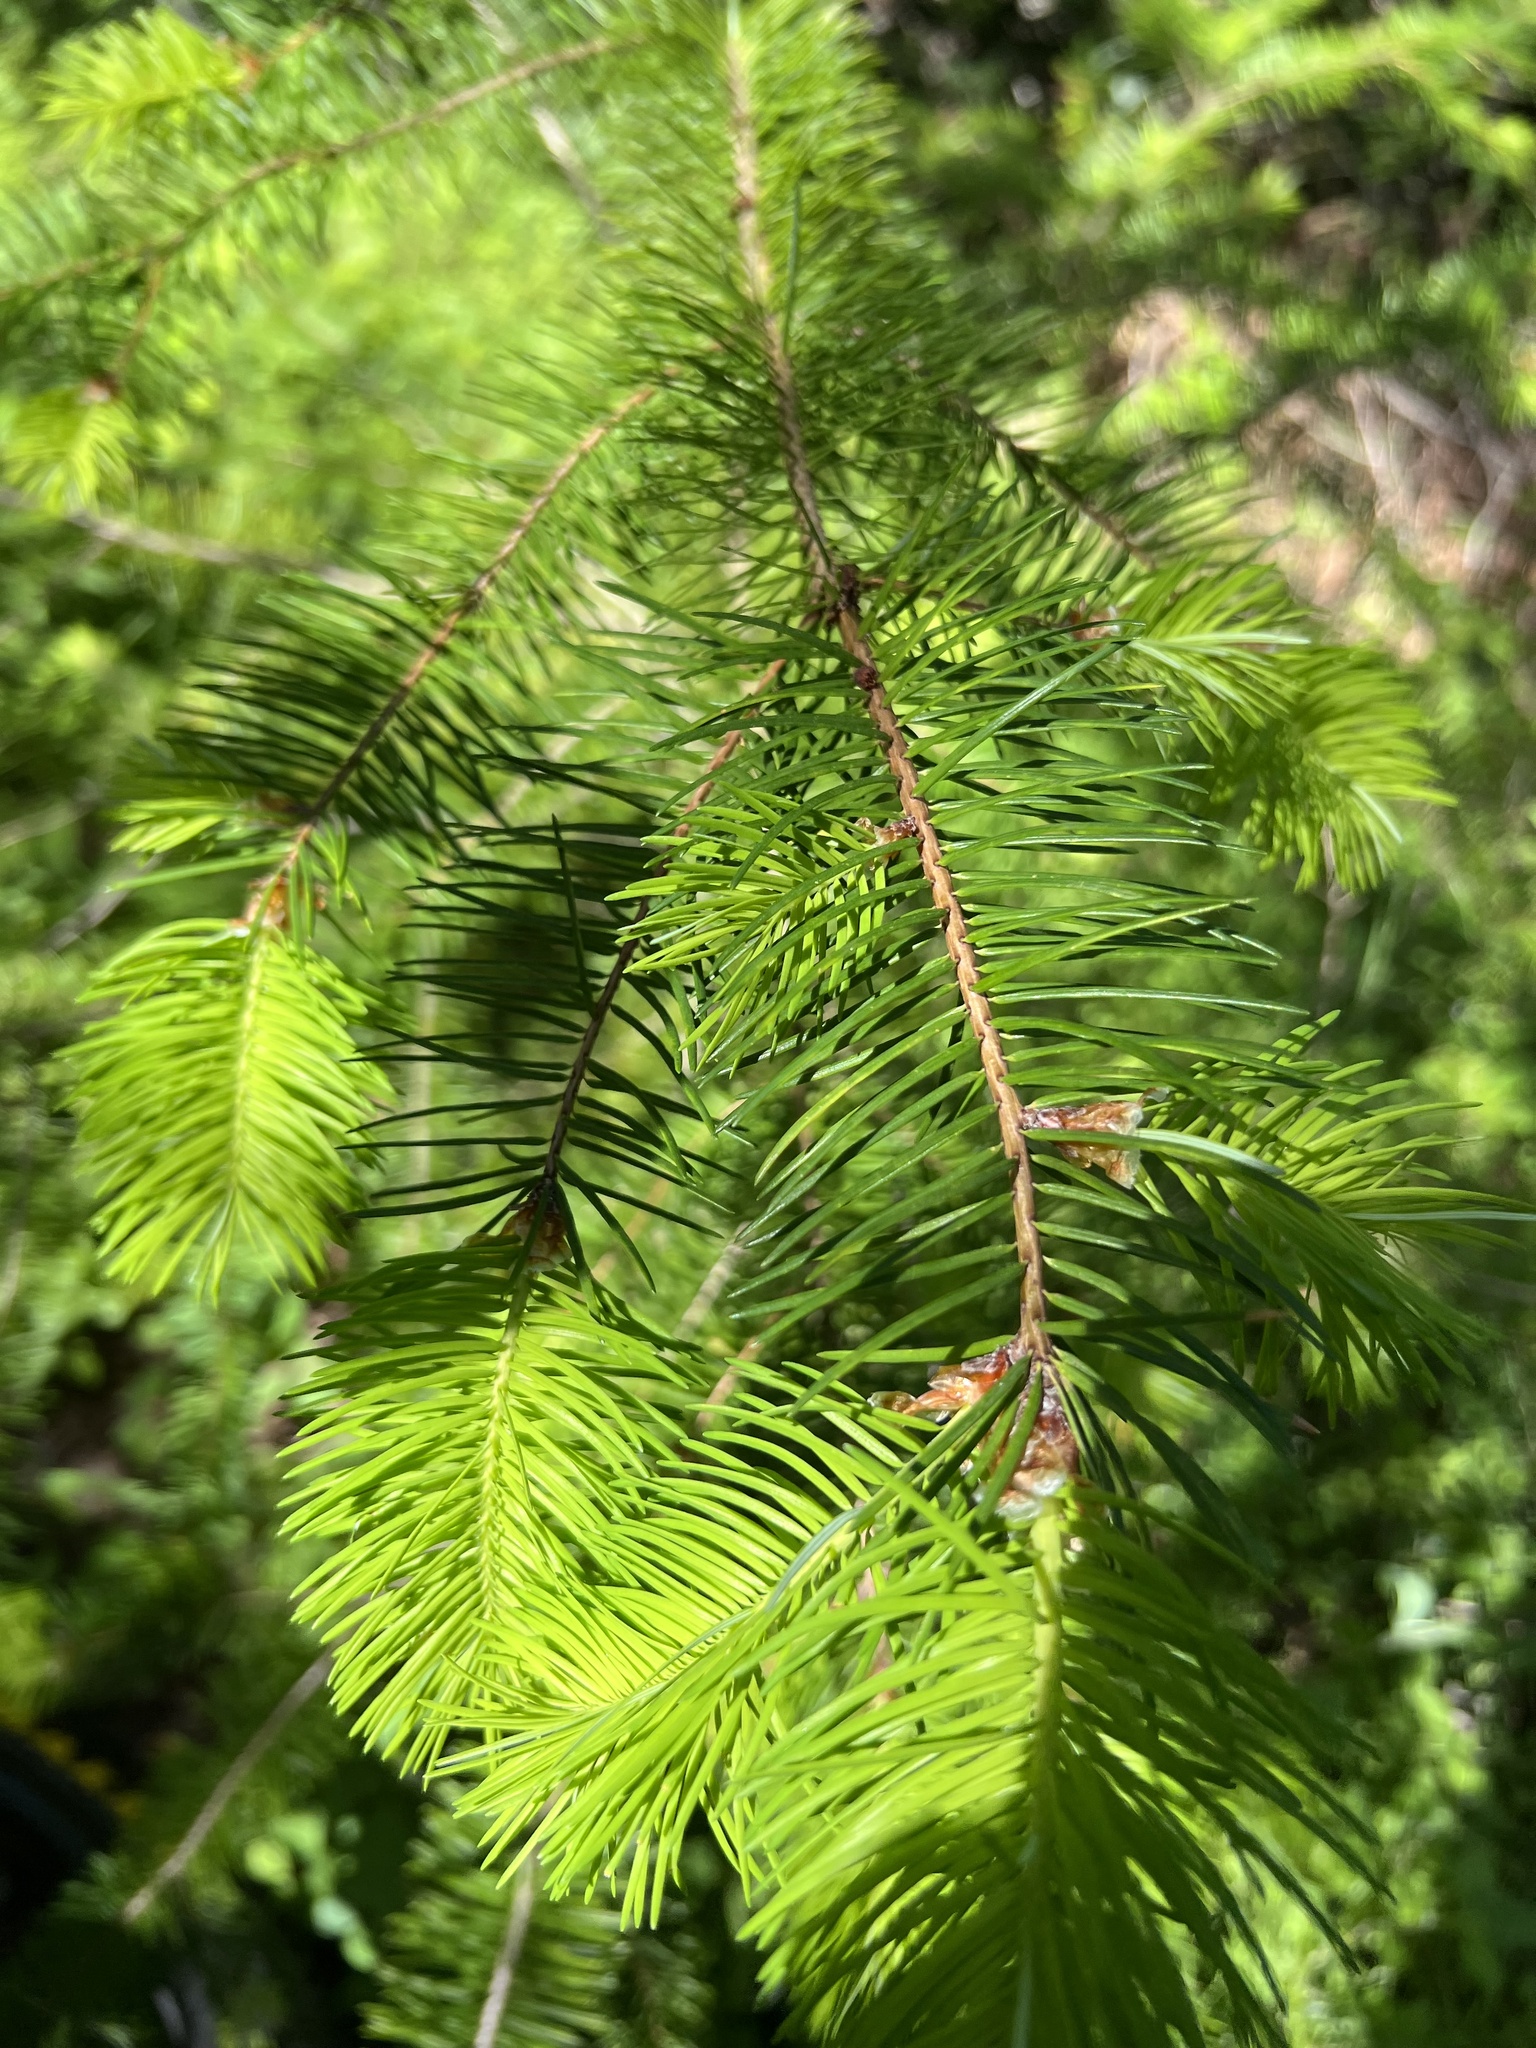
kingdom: Plantae
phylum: Tracheophyta
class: Pinopsida
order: Pinales
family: Pinaceae
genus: Pseudotsuga
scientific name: Pseudotsuga menziesii
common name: Douglas fir
